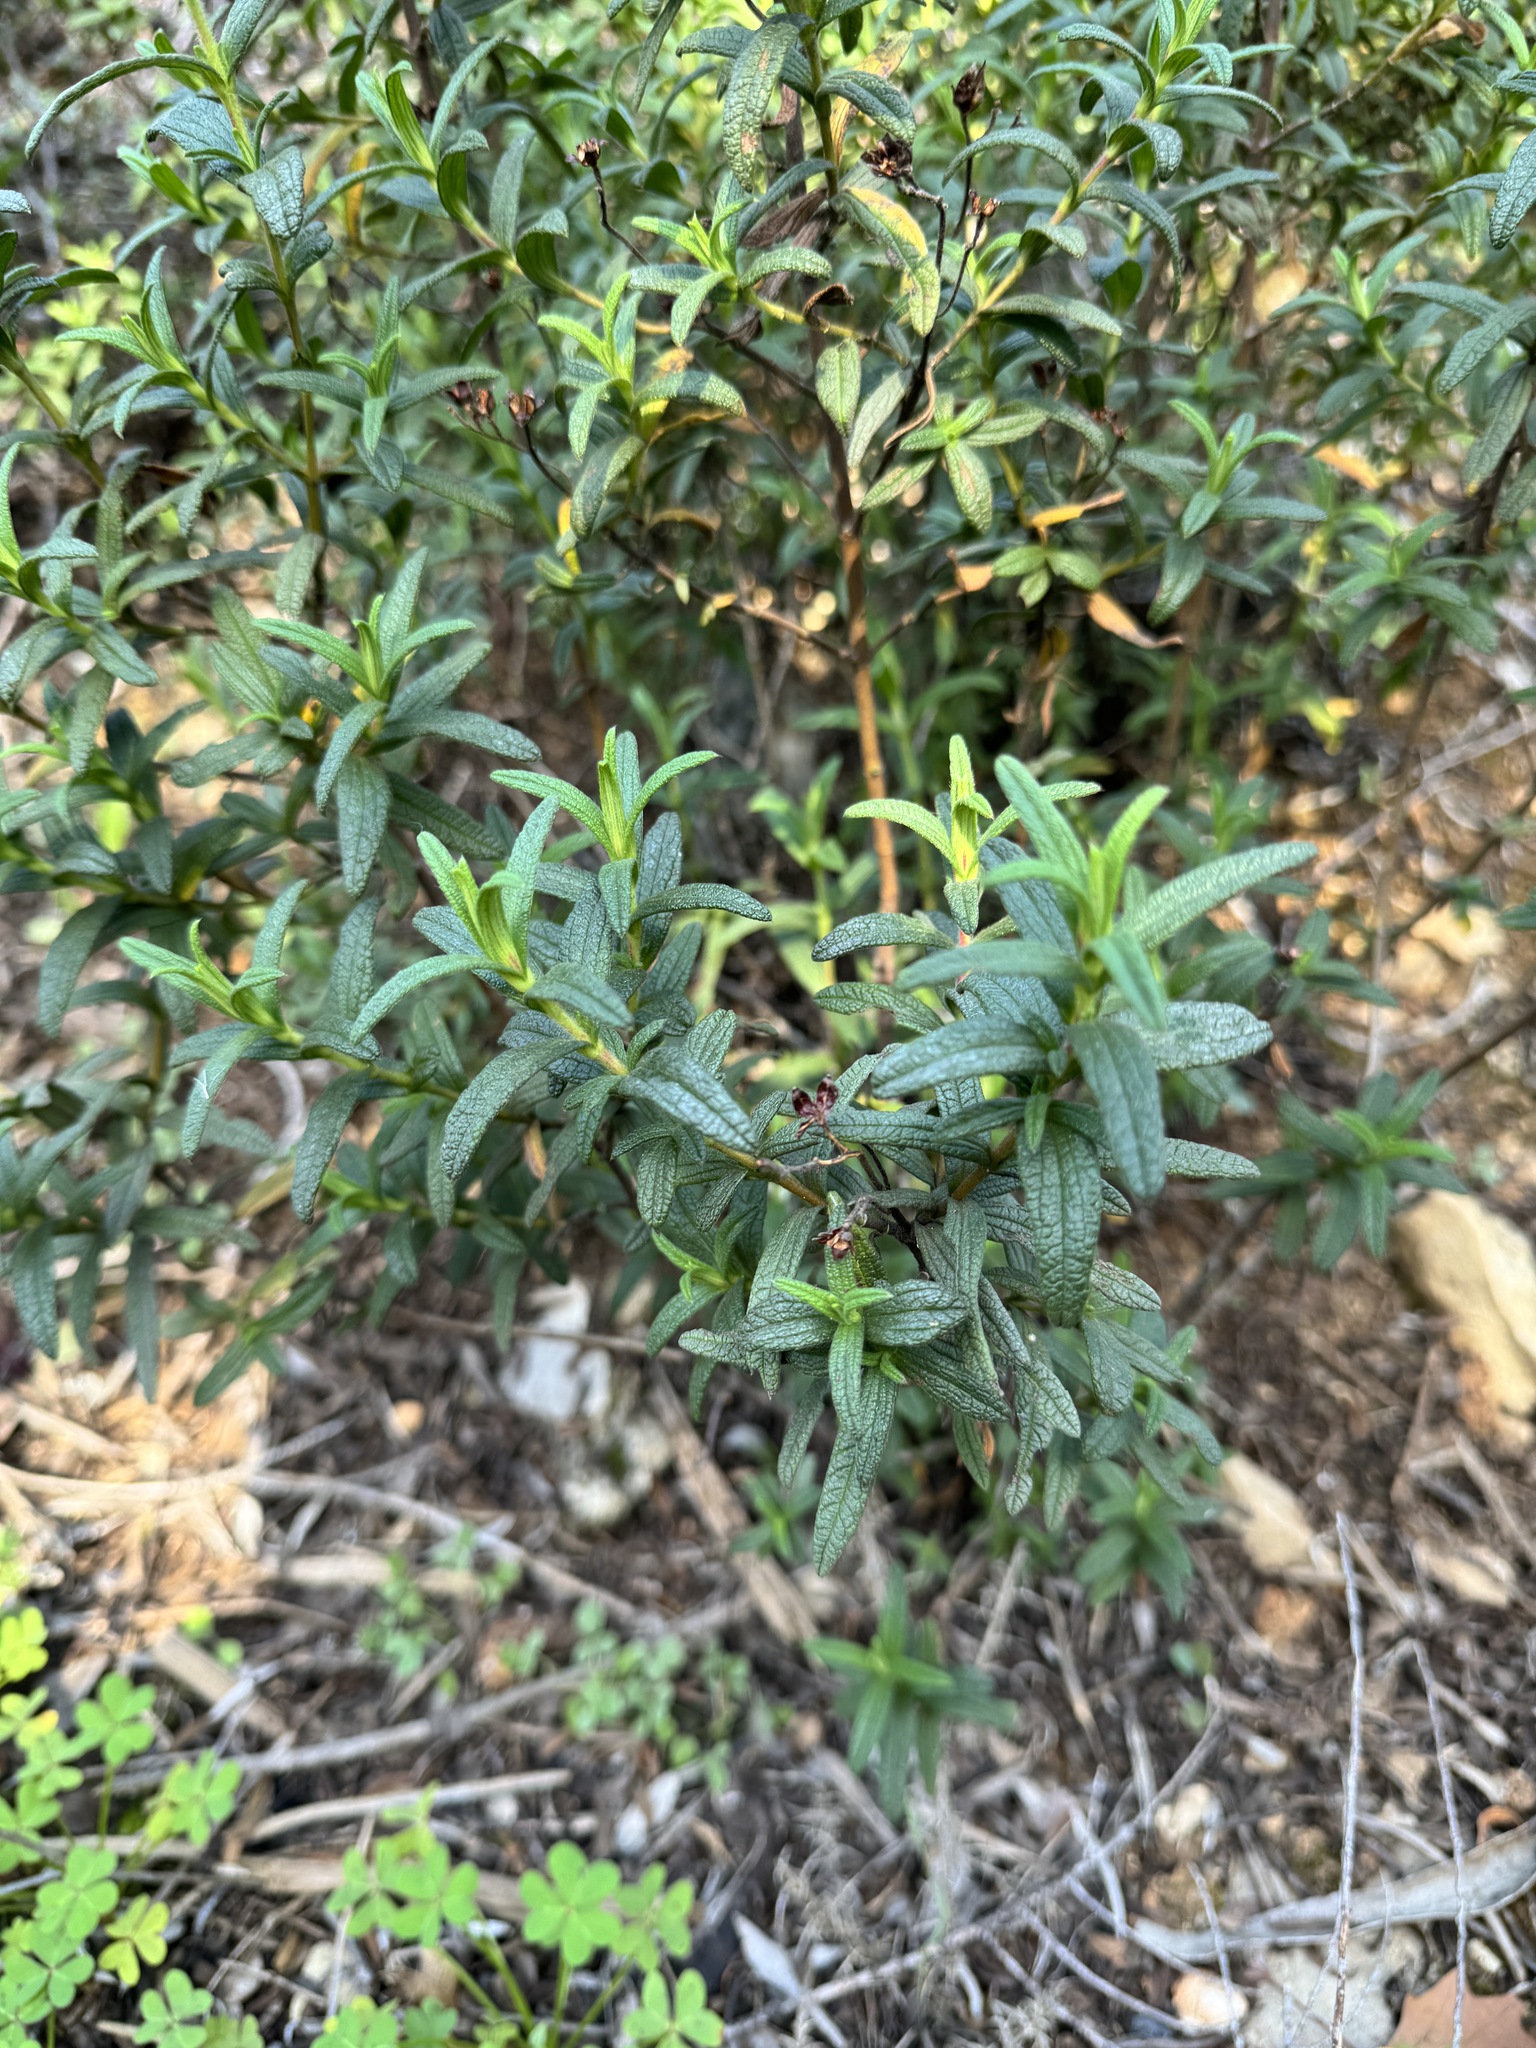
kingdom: Plantae
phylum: Tracheophyta
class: Magnoliopsida
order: Malvales
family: Cistaceae
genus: Cistus
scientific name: Cistus monspeliensis
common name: Montpelier cistus
